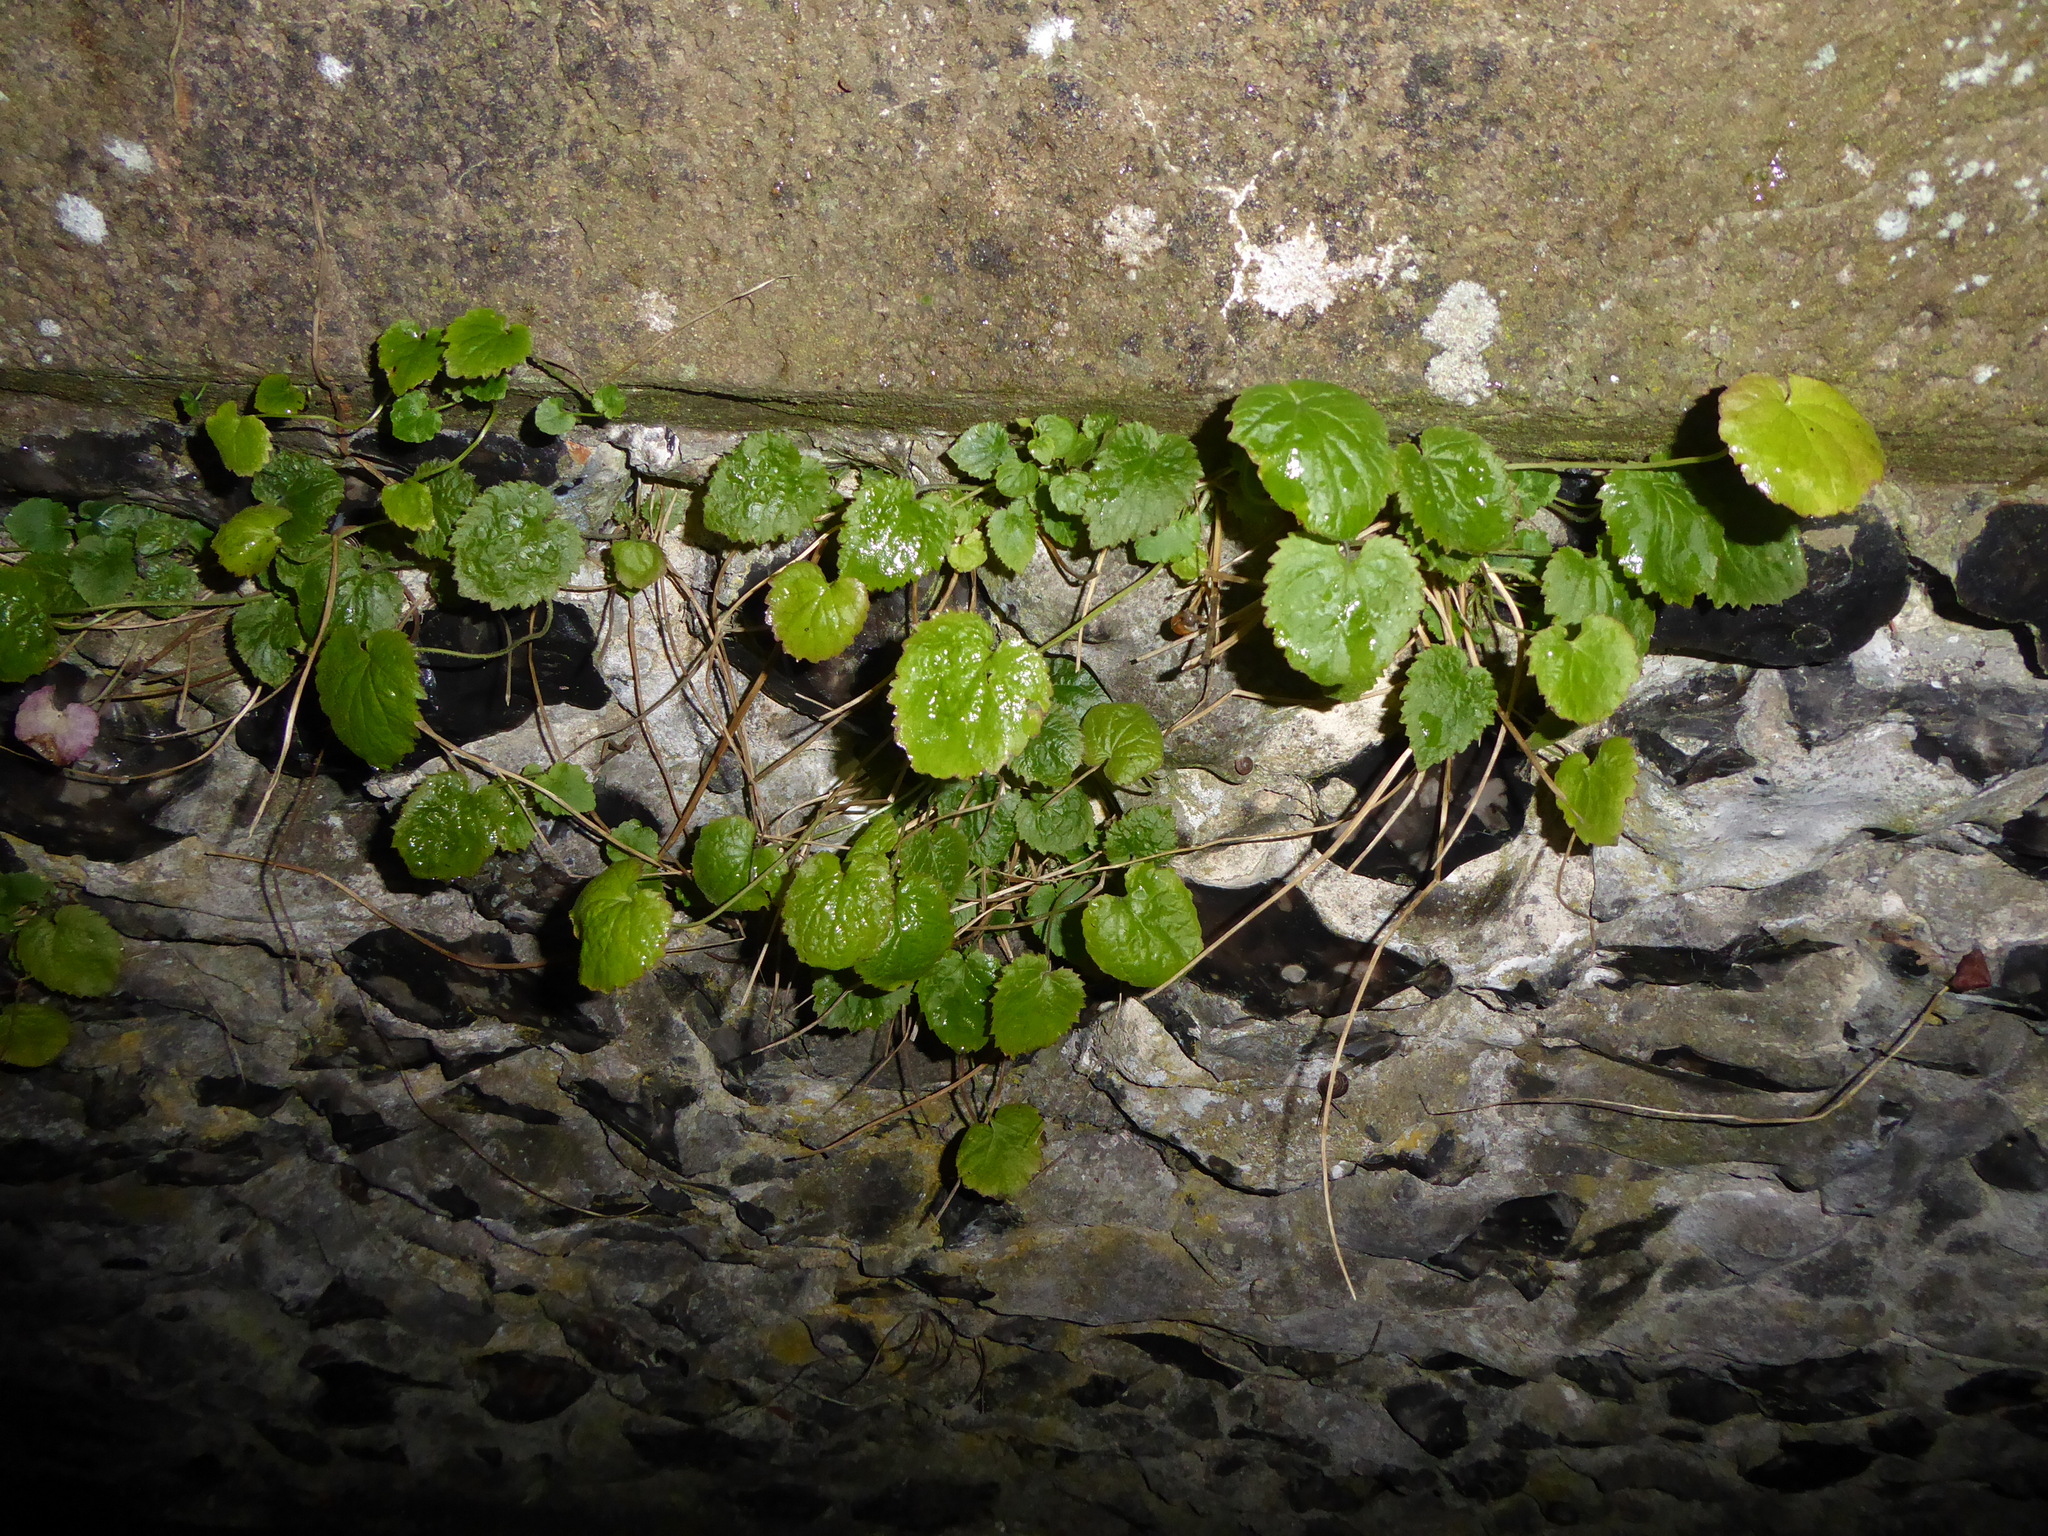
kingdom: Plantae
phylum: Tracheophyta
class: Magnoliopsida
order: Asterales
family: Campanulaceae
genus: Campanula
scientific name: Campanula poscharskyana
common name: Trailing bellflower
